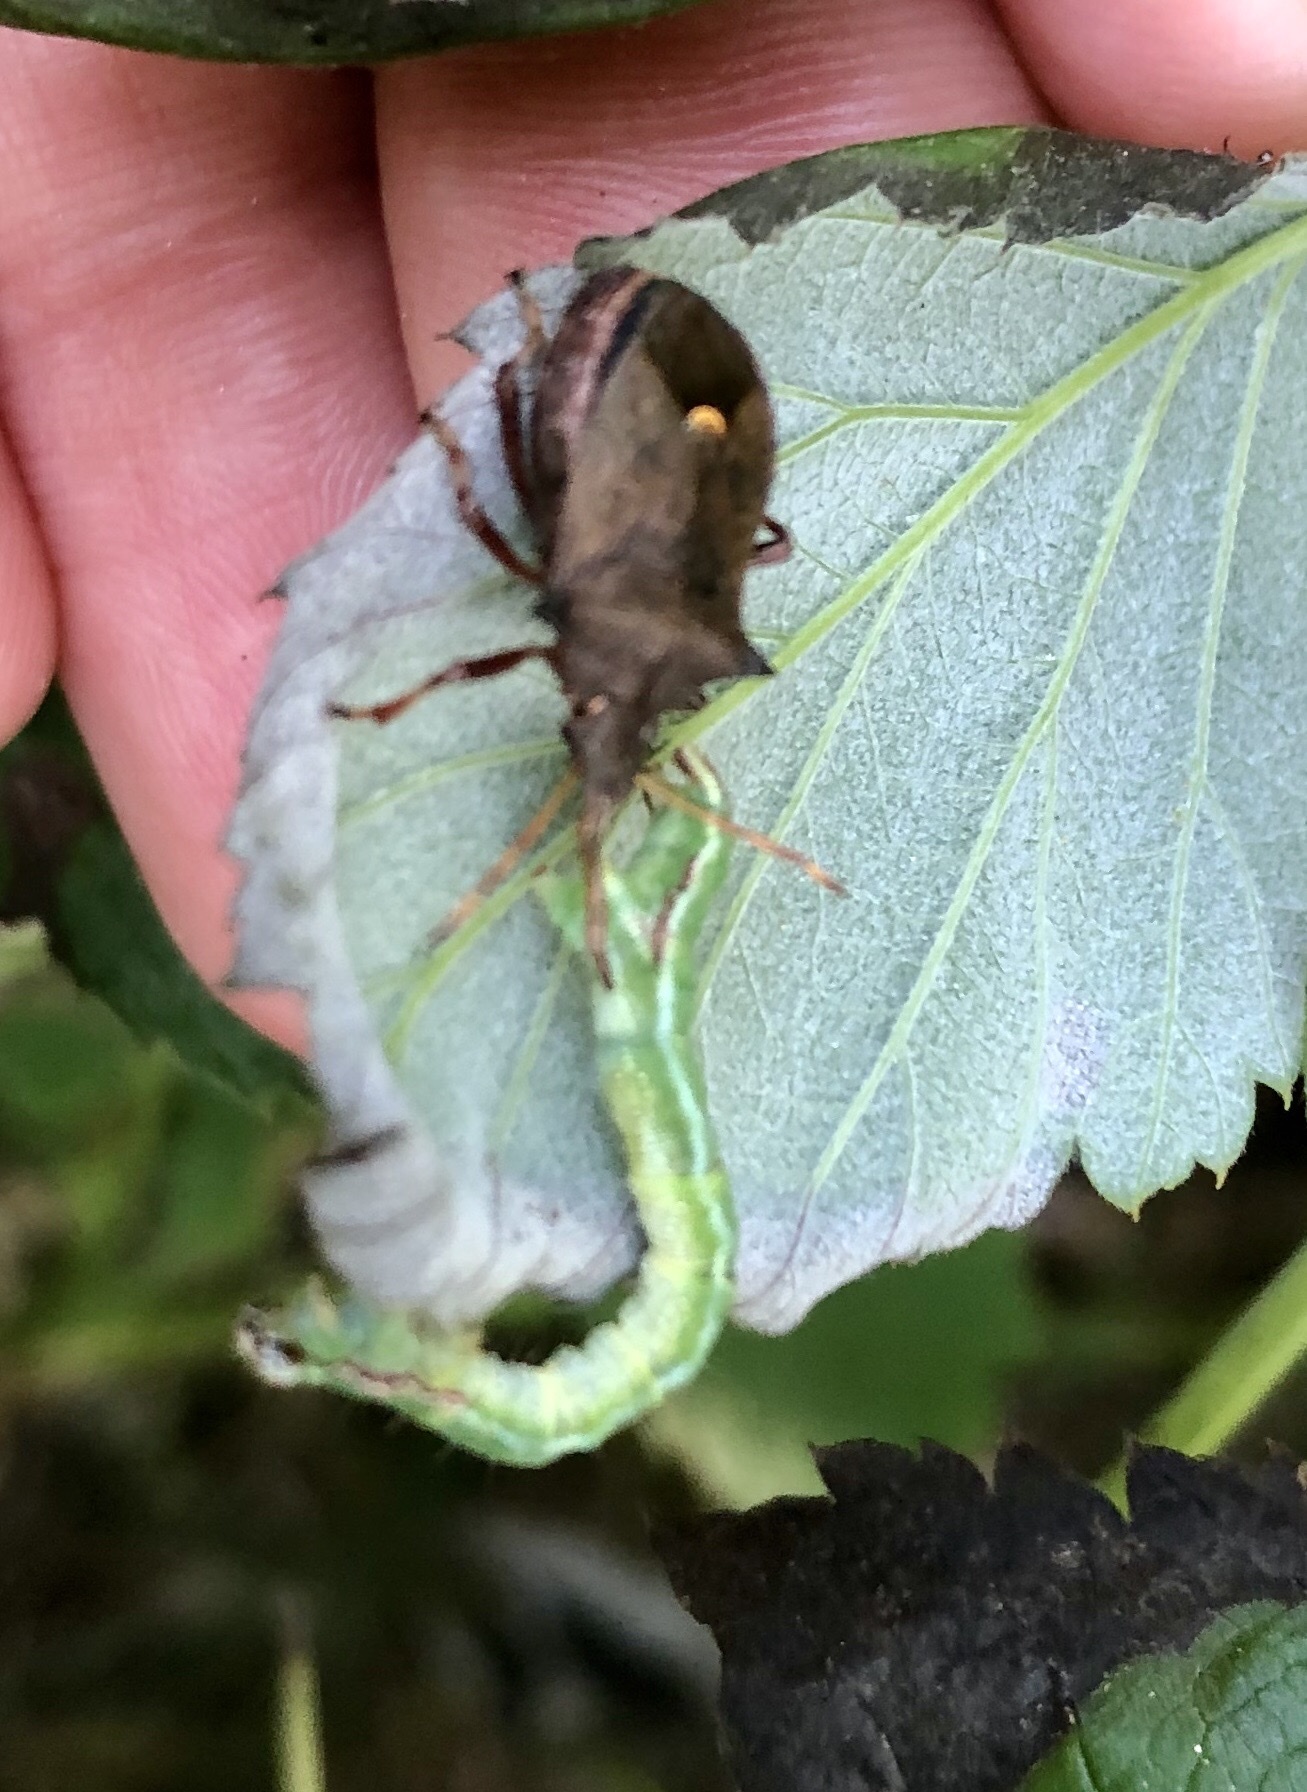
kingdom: Animalia
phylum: Arthropoda
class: Insecta
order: Hemiptera
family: Pentatomidae
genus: Picromerus
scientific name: Picromerus bidens
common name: Spiked shieldbug
